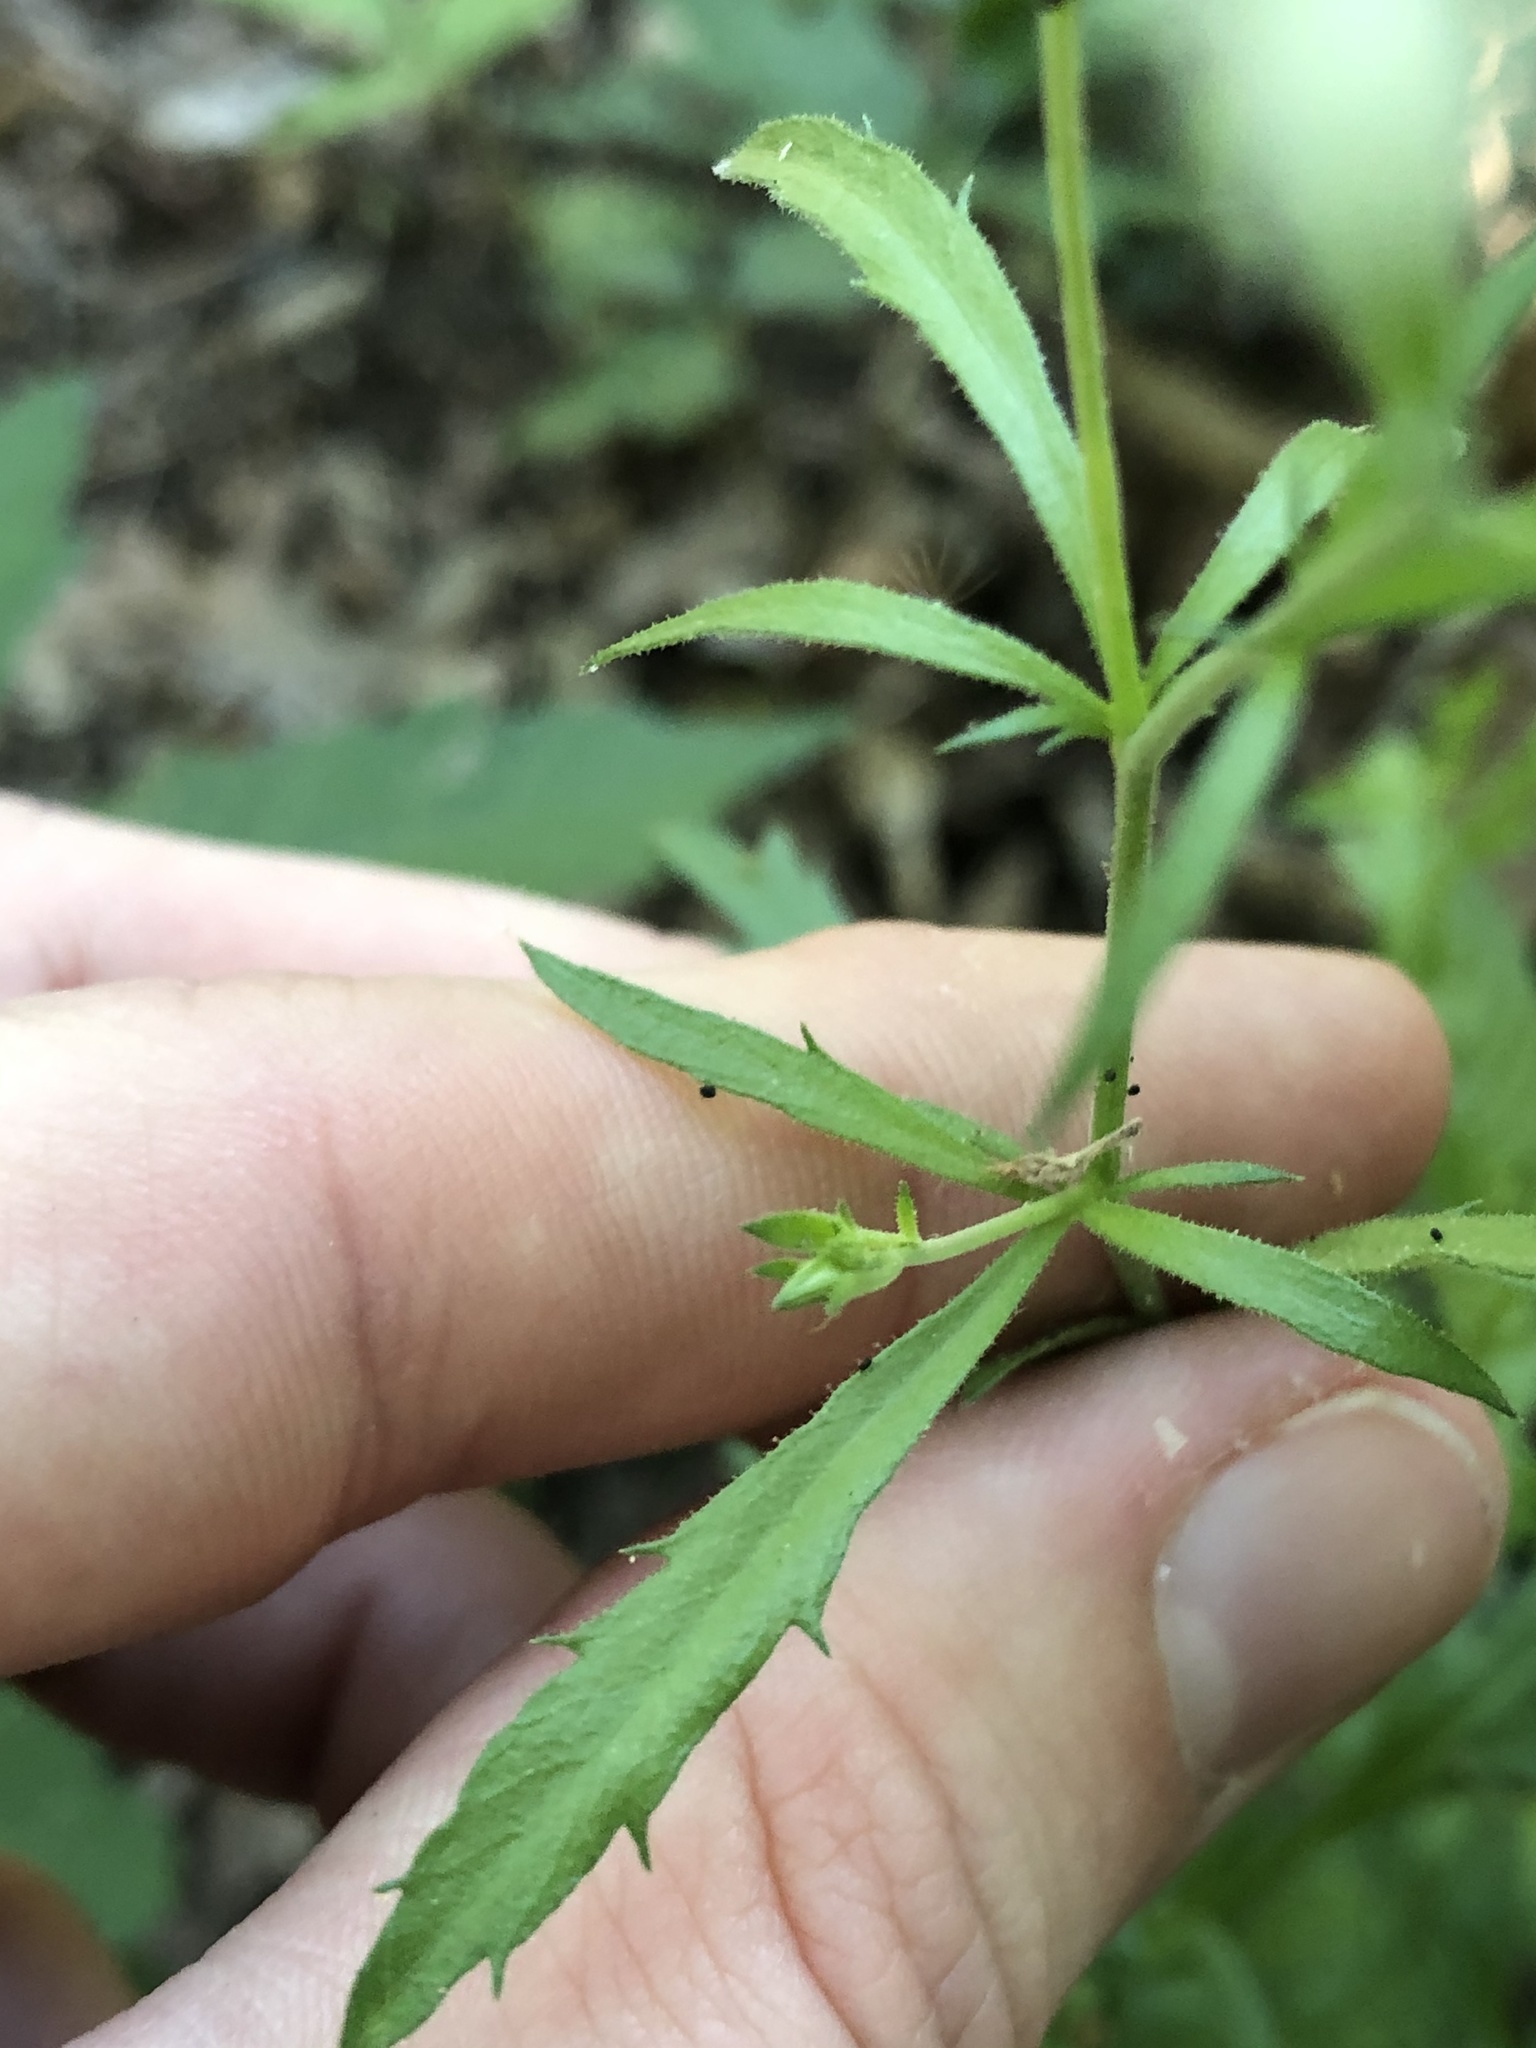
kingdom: Plantae
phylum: Tracheophyta
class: Magnoliopsida
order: Ericales
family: Polemoniaceae
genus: Giliastrum
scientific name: Giliastrum incisum
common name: Splitleaf gilia
